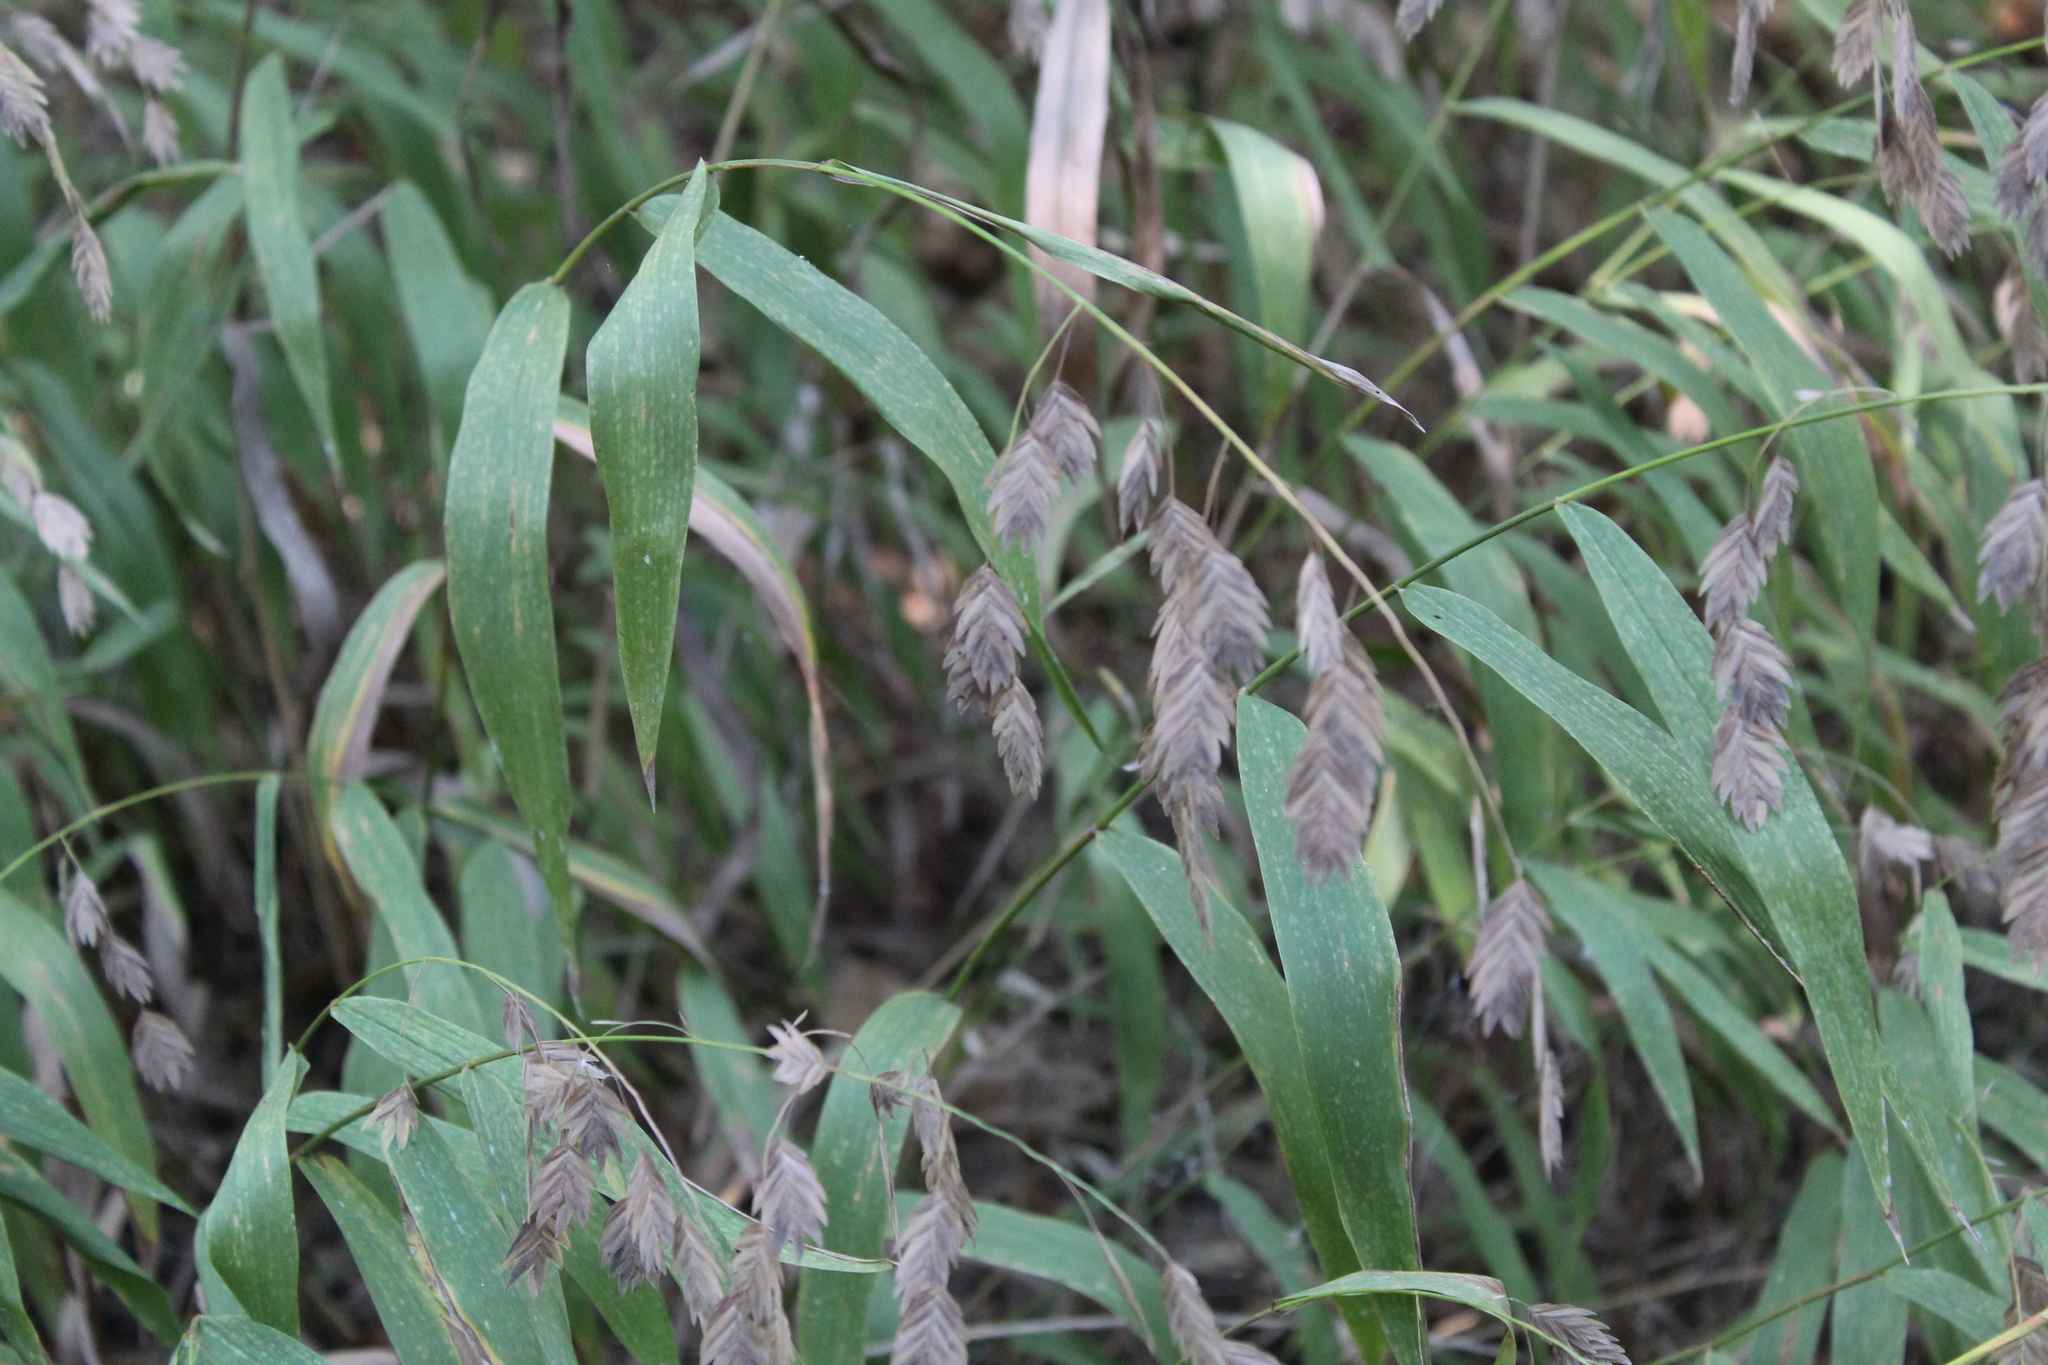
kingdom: Plantae
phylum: Tracheophyta
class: Liliopsida
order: Poales
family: Poaceae
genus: Chasmanthium
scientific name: Chasmanthium latifolium
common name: Broad-leaved chasmanthium
